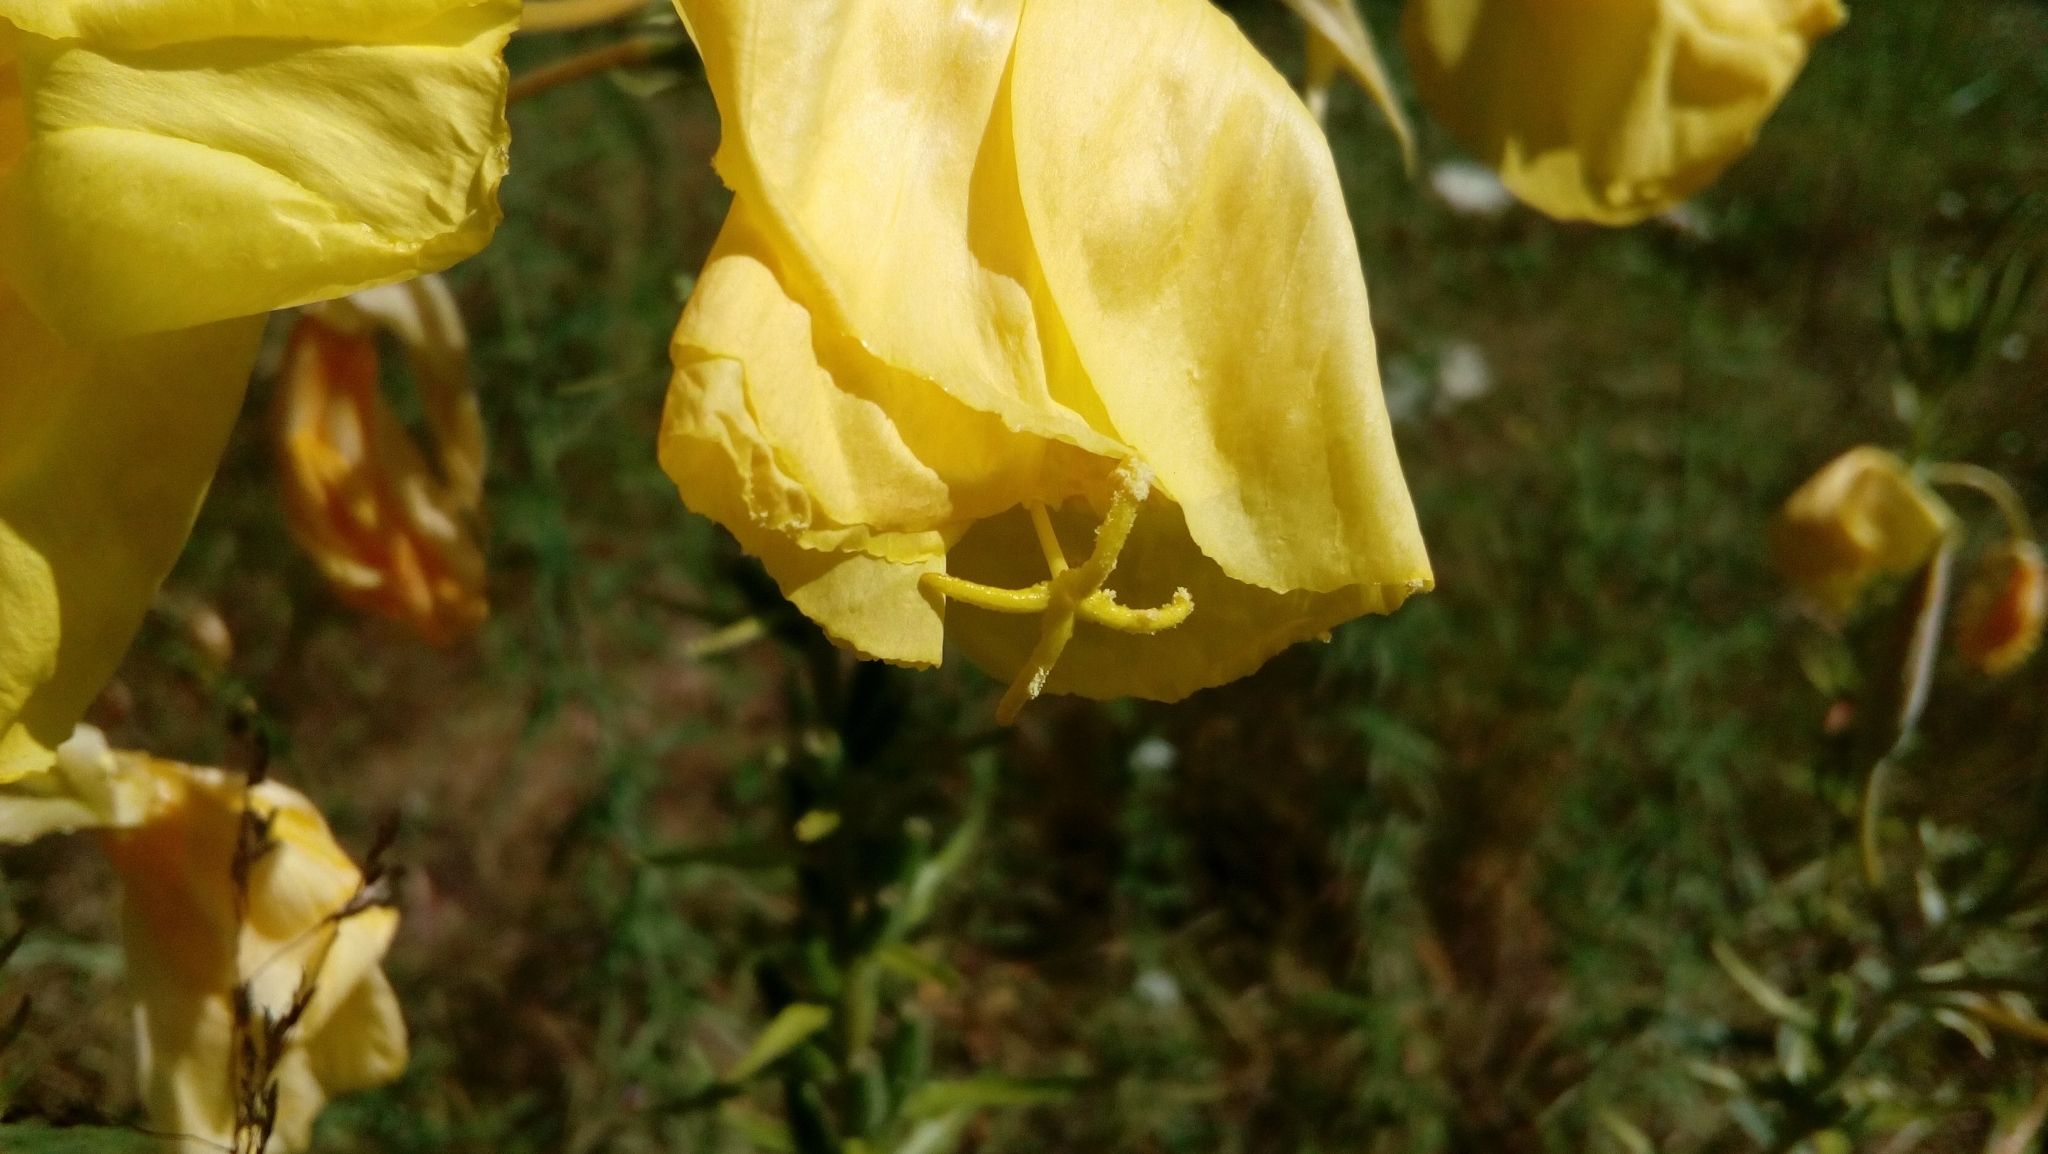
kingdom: Plantae
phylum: Tracheophyta
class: Magnoliopsida
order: Myrtales
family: Onagraceae
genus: Oenothera
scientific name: Oenothera glazioviana
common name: Large-flowered evening-primrose
